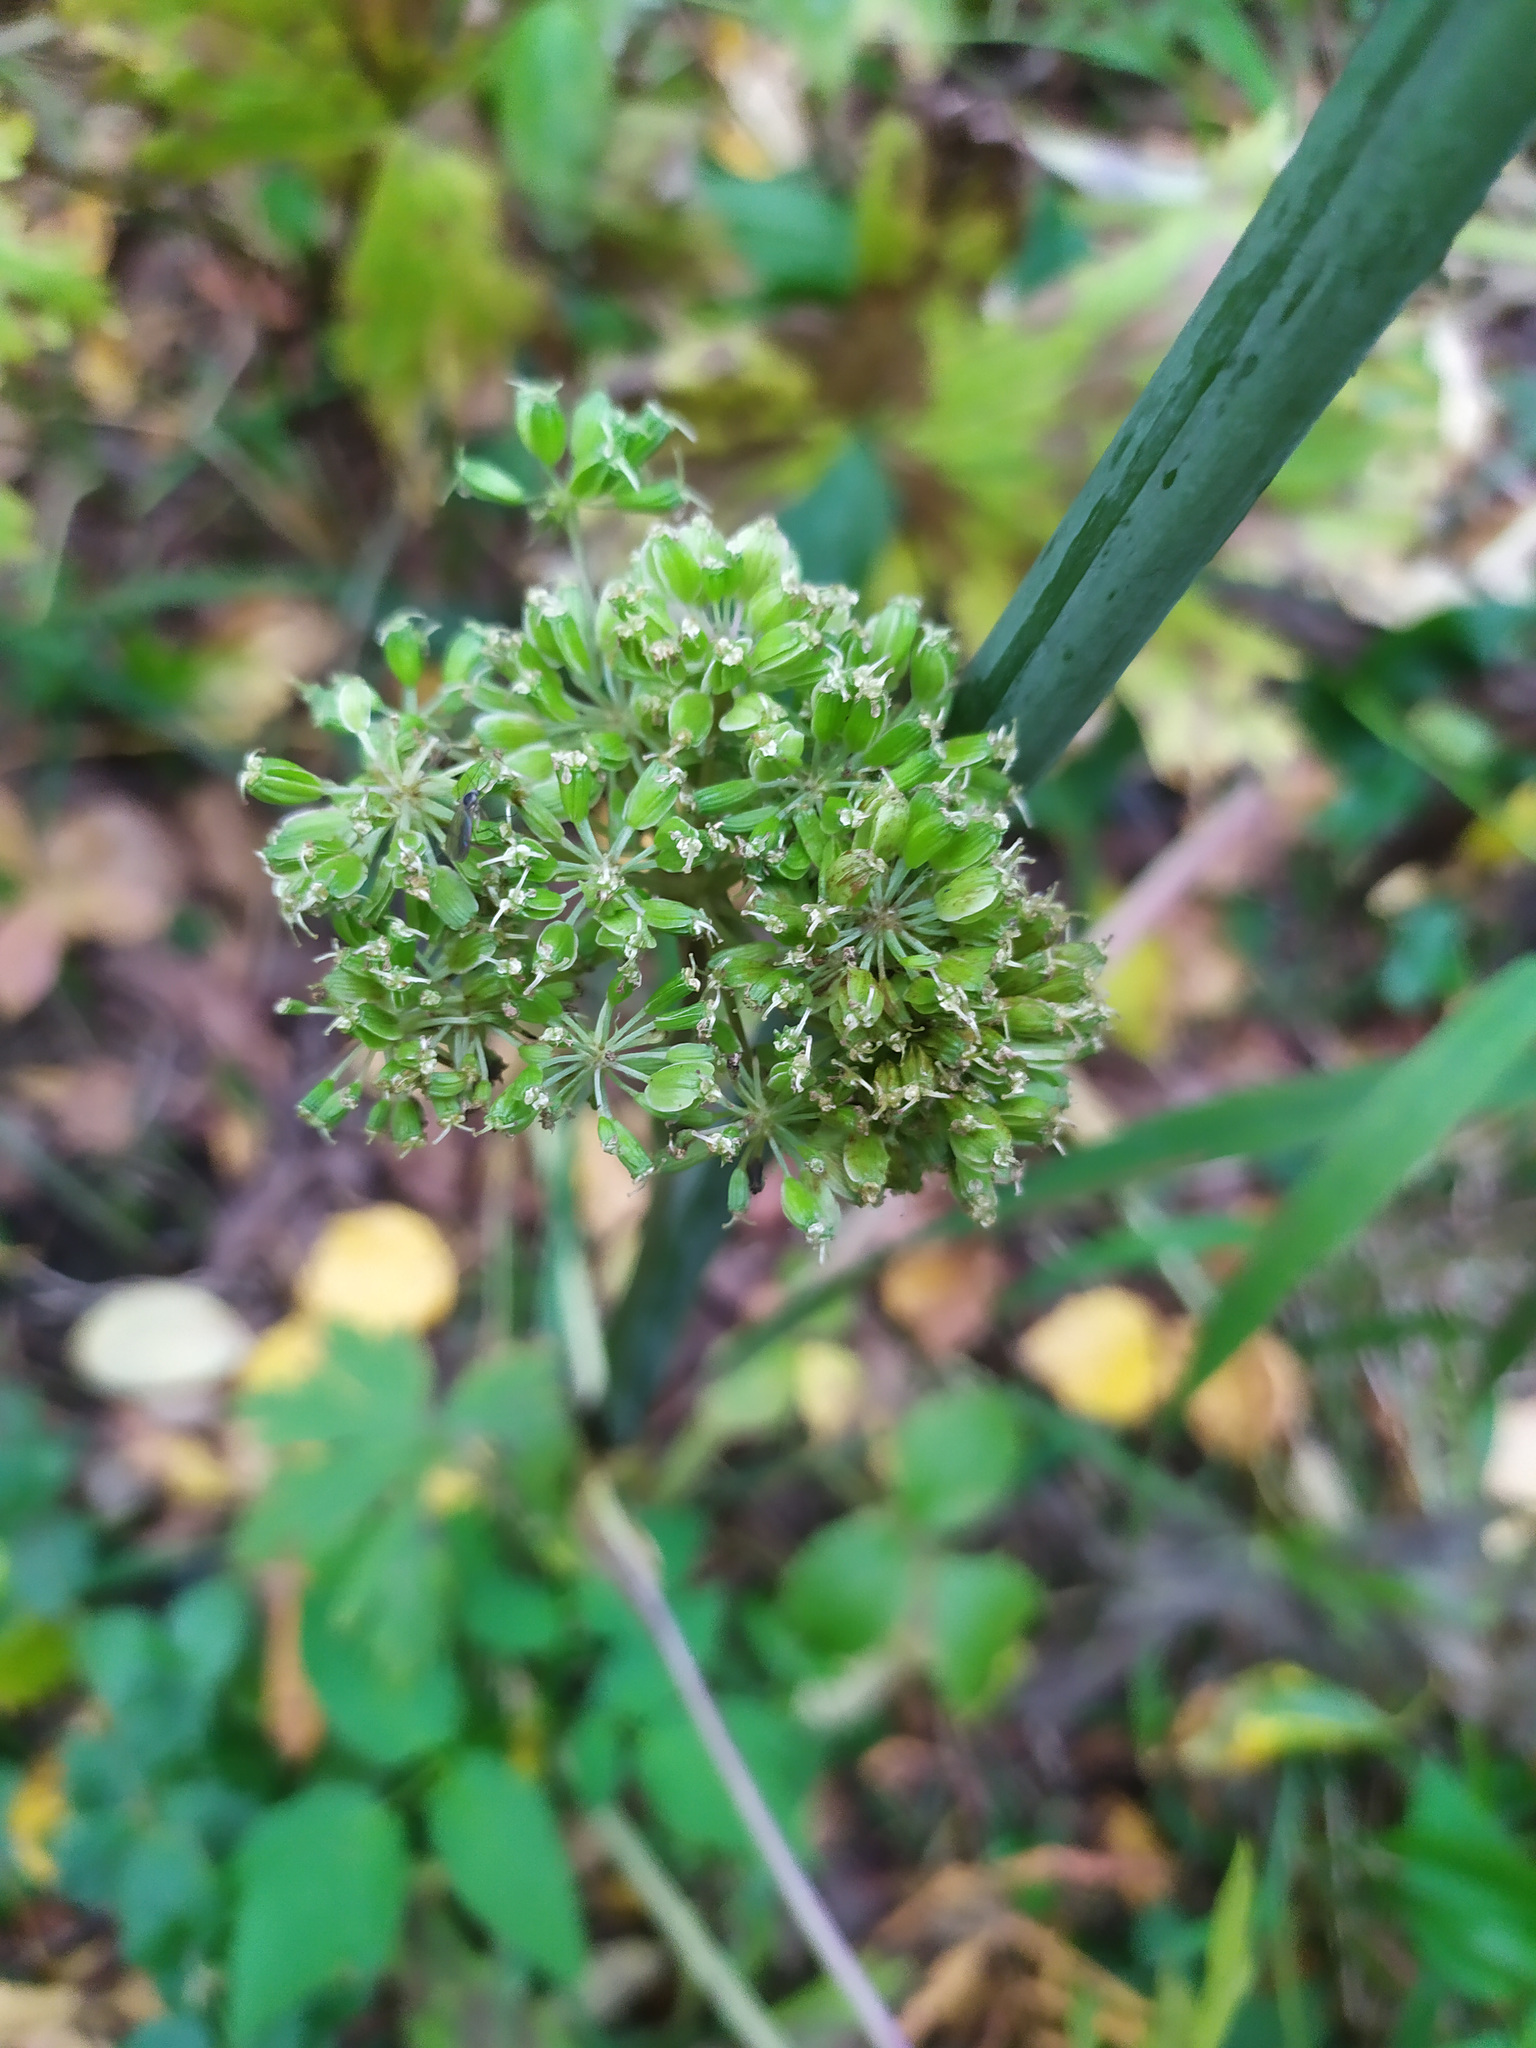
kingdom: Plantae
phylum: Tracheophyta
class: Magnoliopsida
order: Apiales
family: Apiaceae
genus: Angelica
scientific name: Angelica sylvestris
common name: Wild angelica
